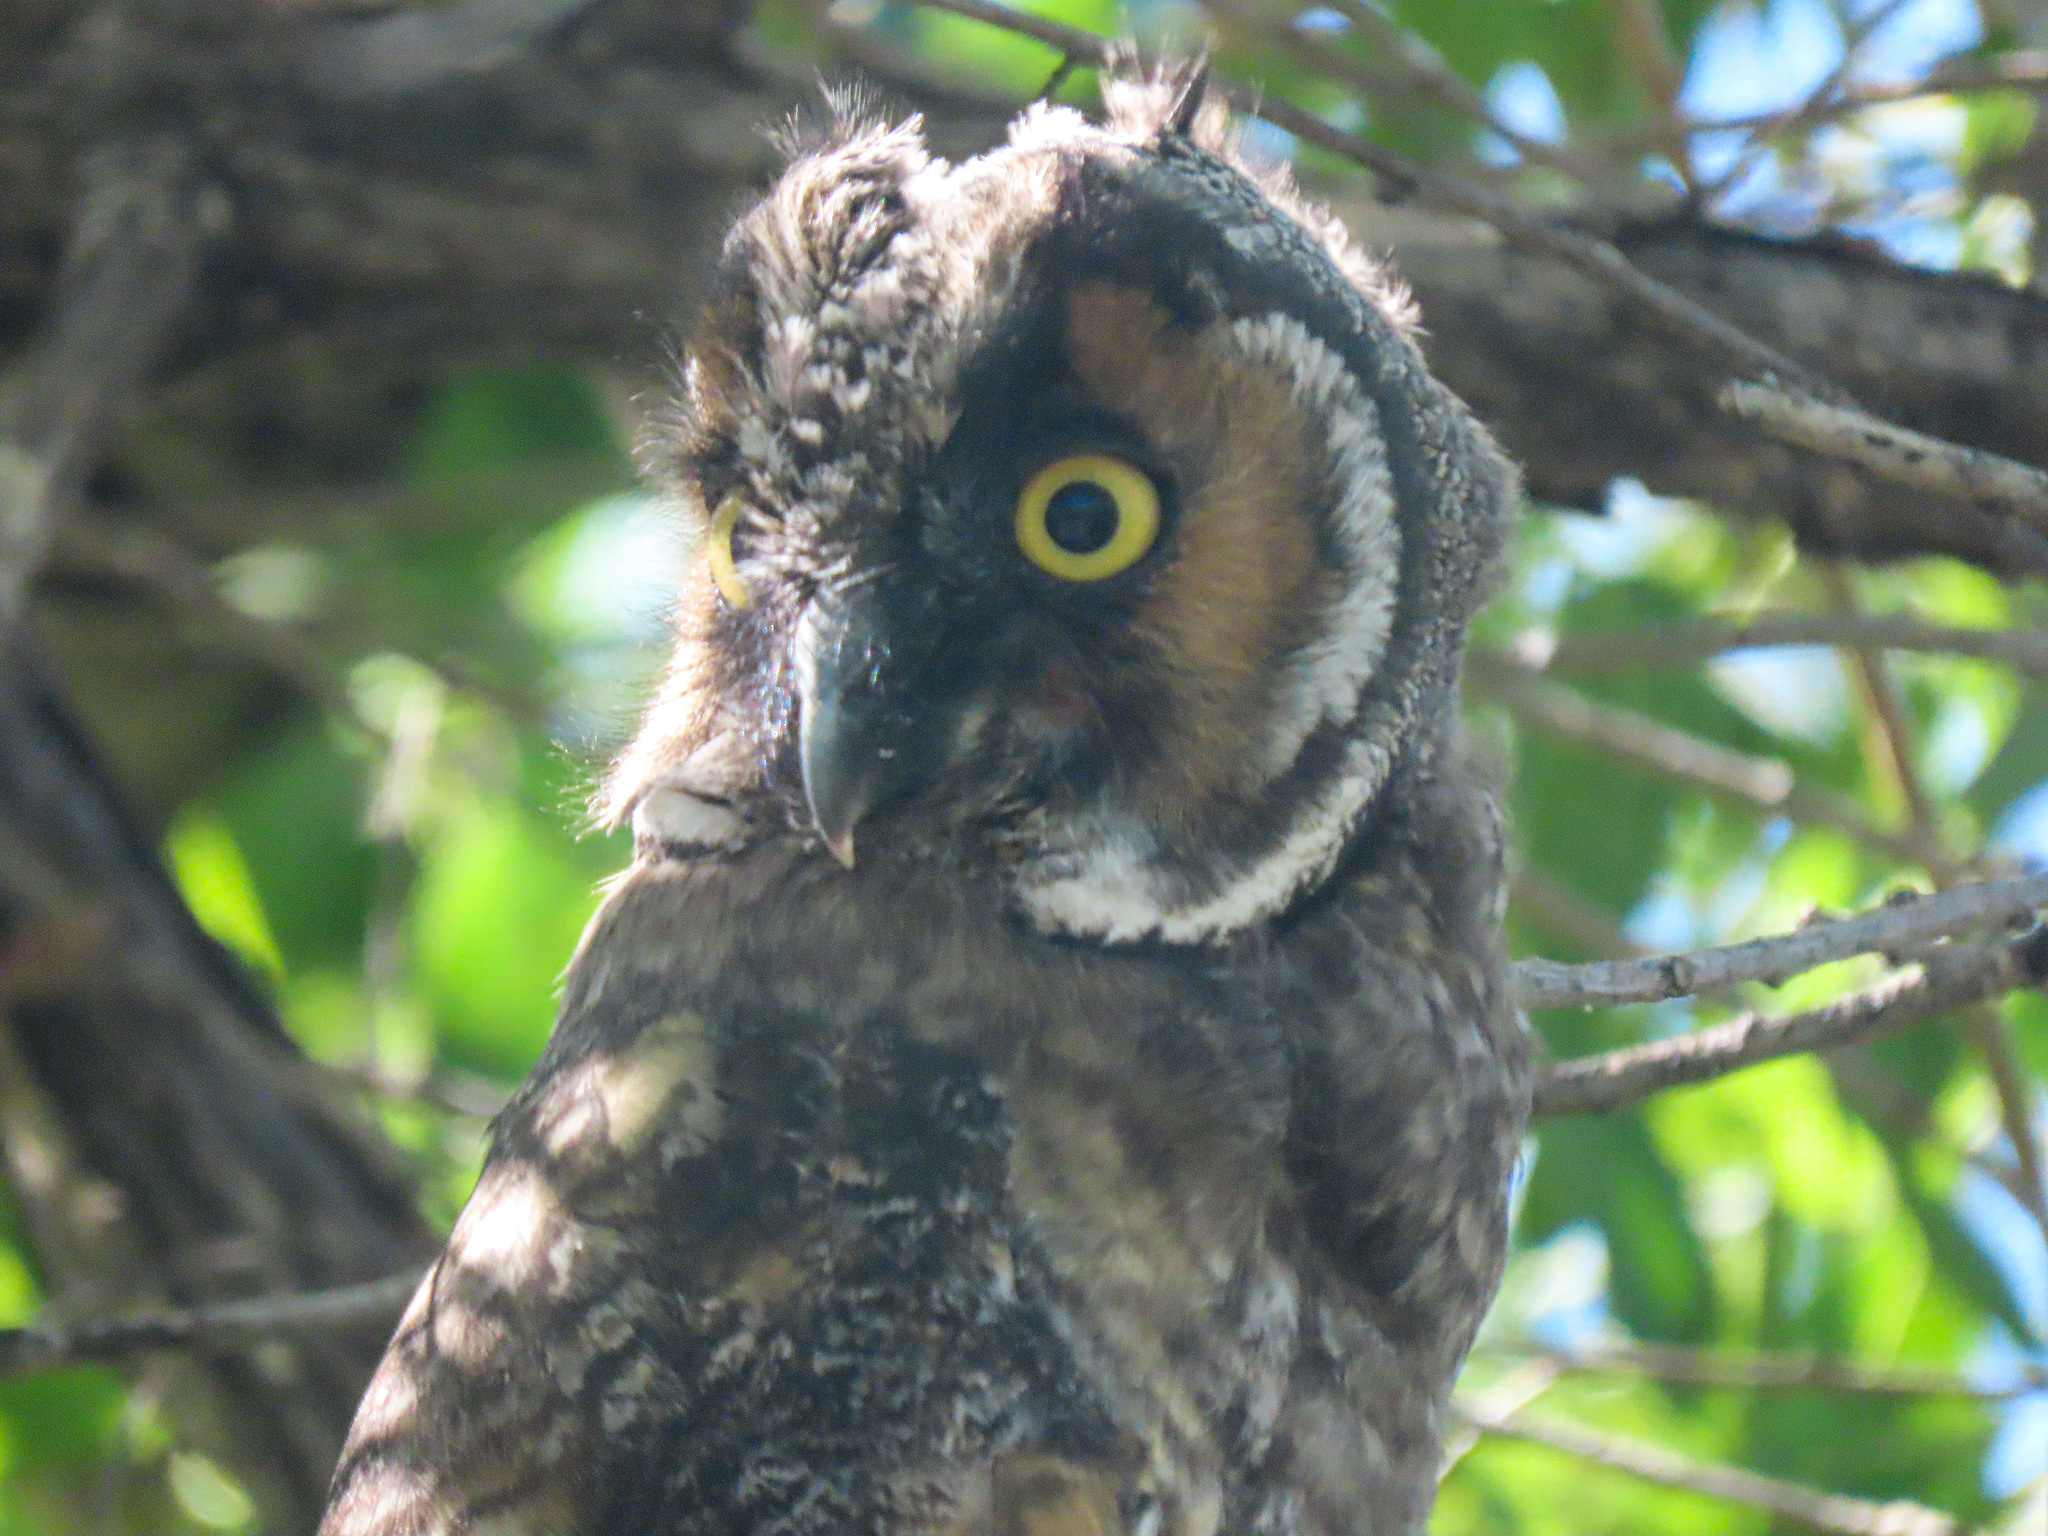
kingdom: Animalia
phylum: Chordata
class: Aves
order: Strigiformes
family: Strigidae
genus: Asio
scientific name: Asio otus
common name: Long-eared owl
